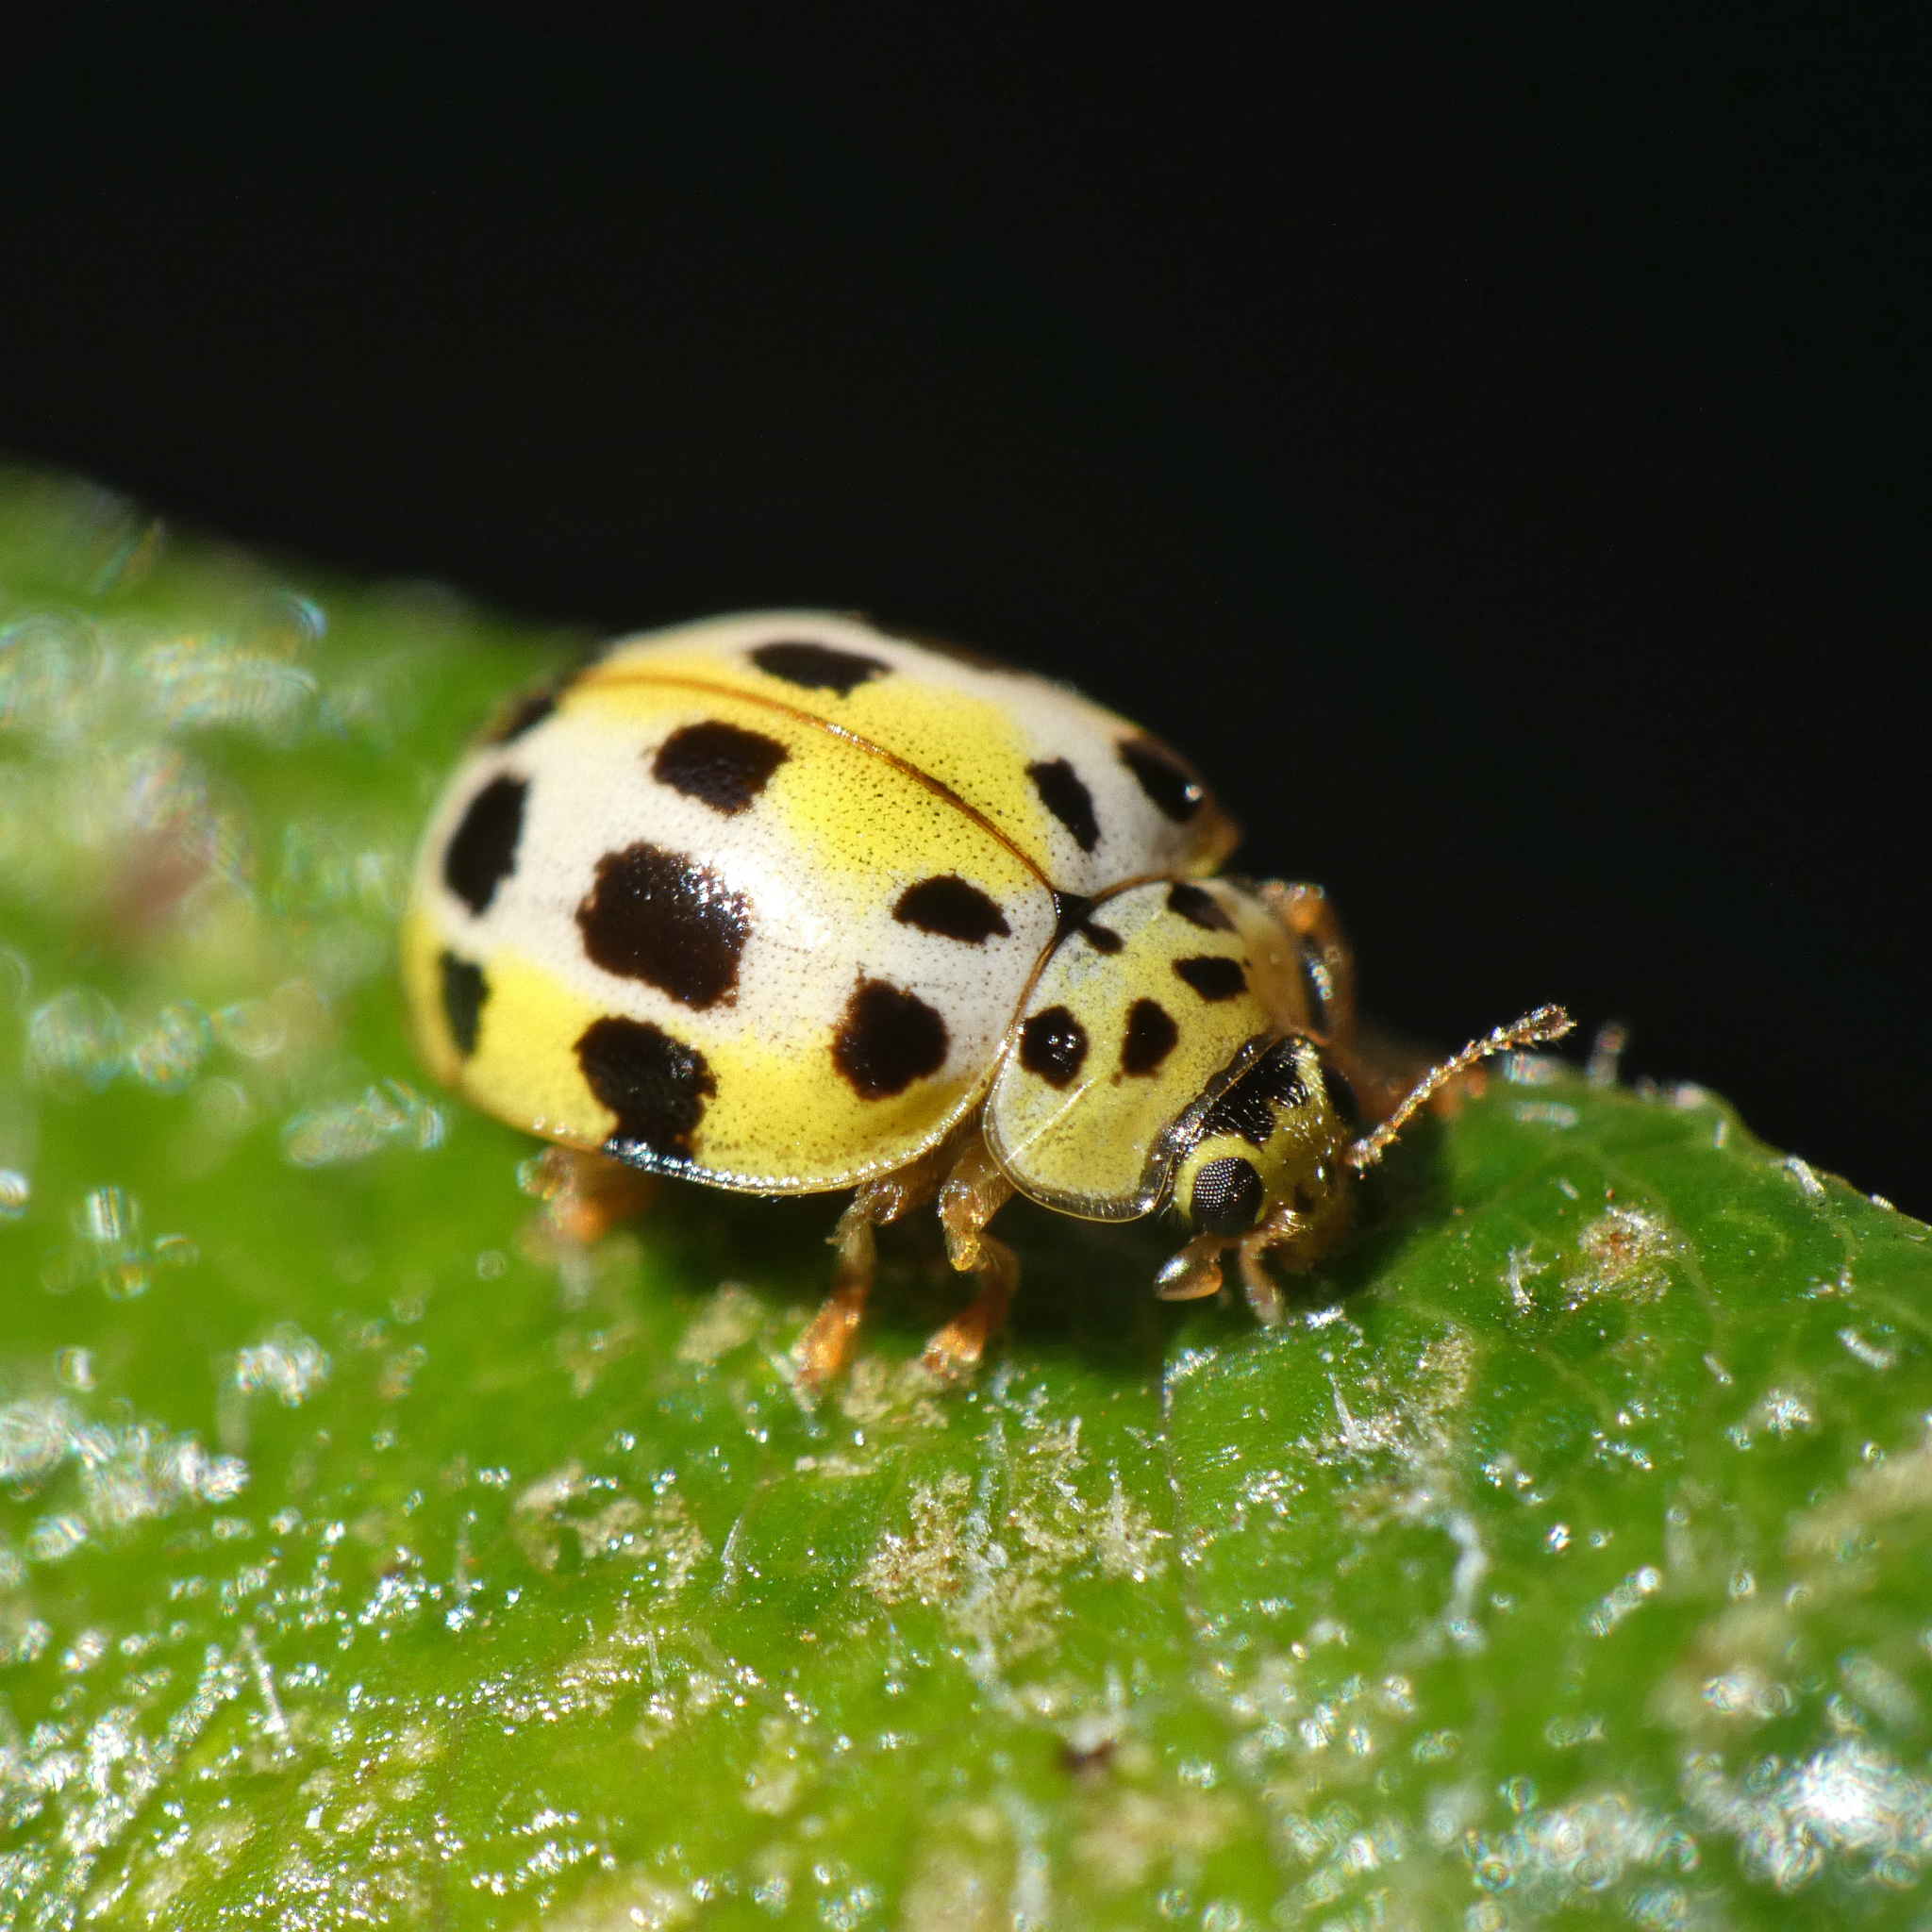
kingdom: Animalia
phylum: Arthropoda
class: Insecta
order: Coleoptera
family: Coccinellidae
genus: Psyllobora
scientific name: Psyllobora variegata
